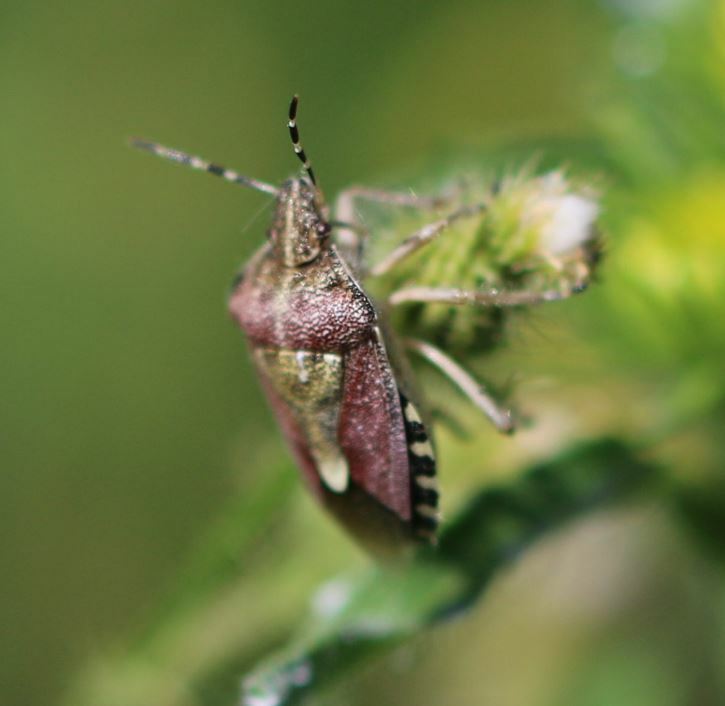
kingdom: Animalia
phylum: Arthropoda
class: Insecta
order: Hemiptera
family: Pentatomidae
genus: Dolycoris
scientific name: Dolycoris baccarum
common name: Sloe bug
